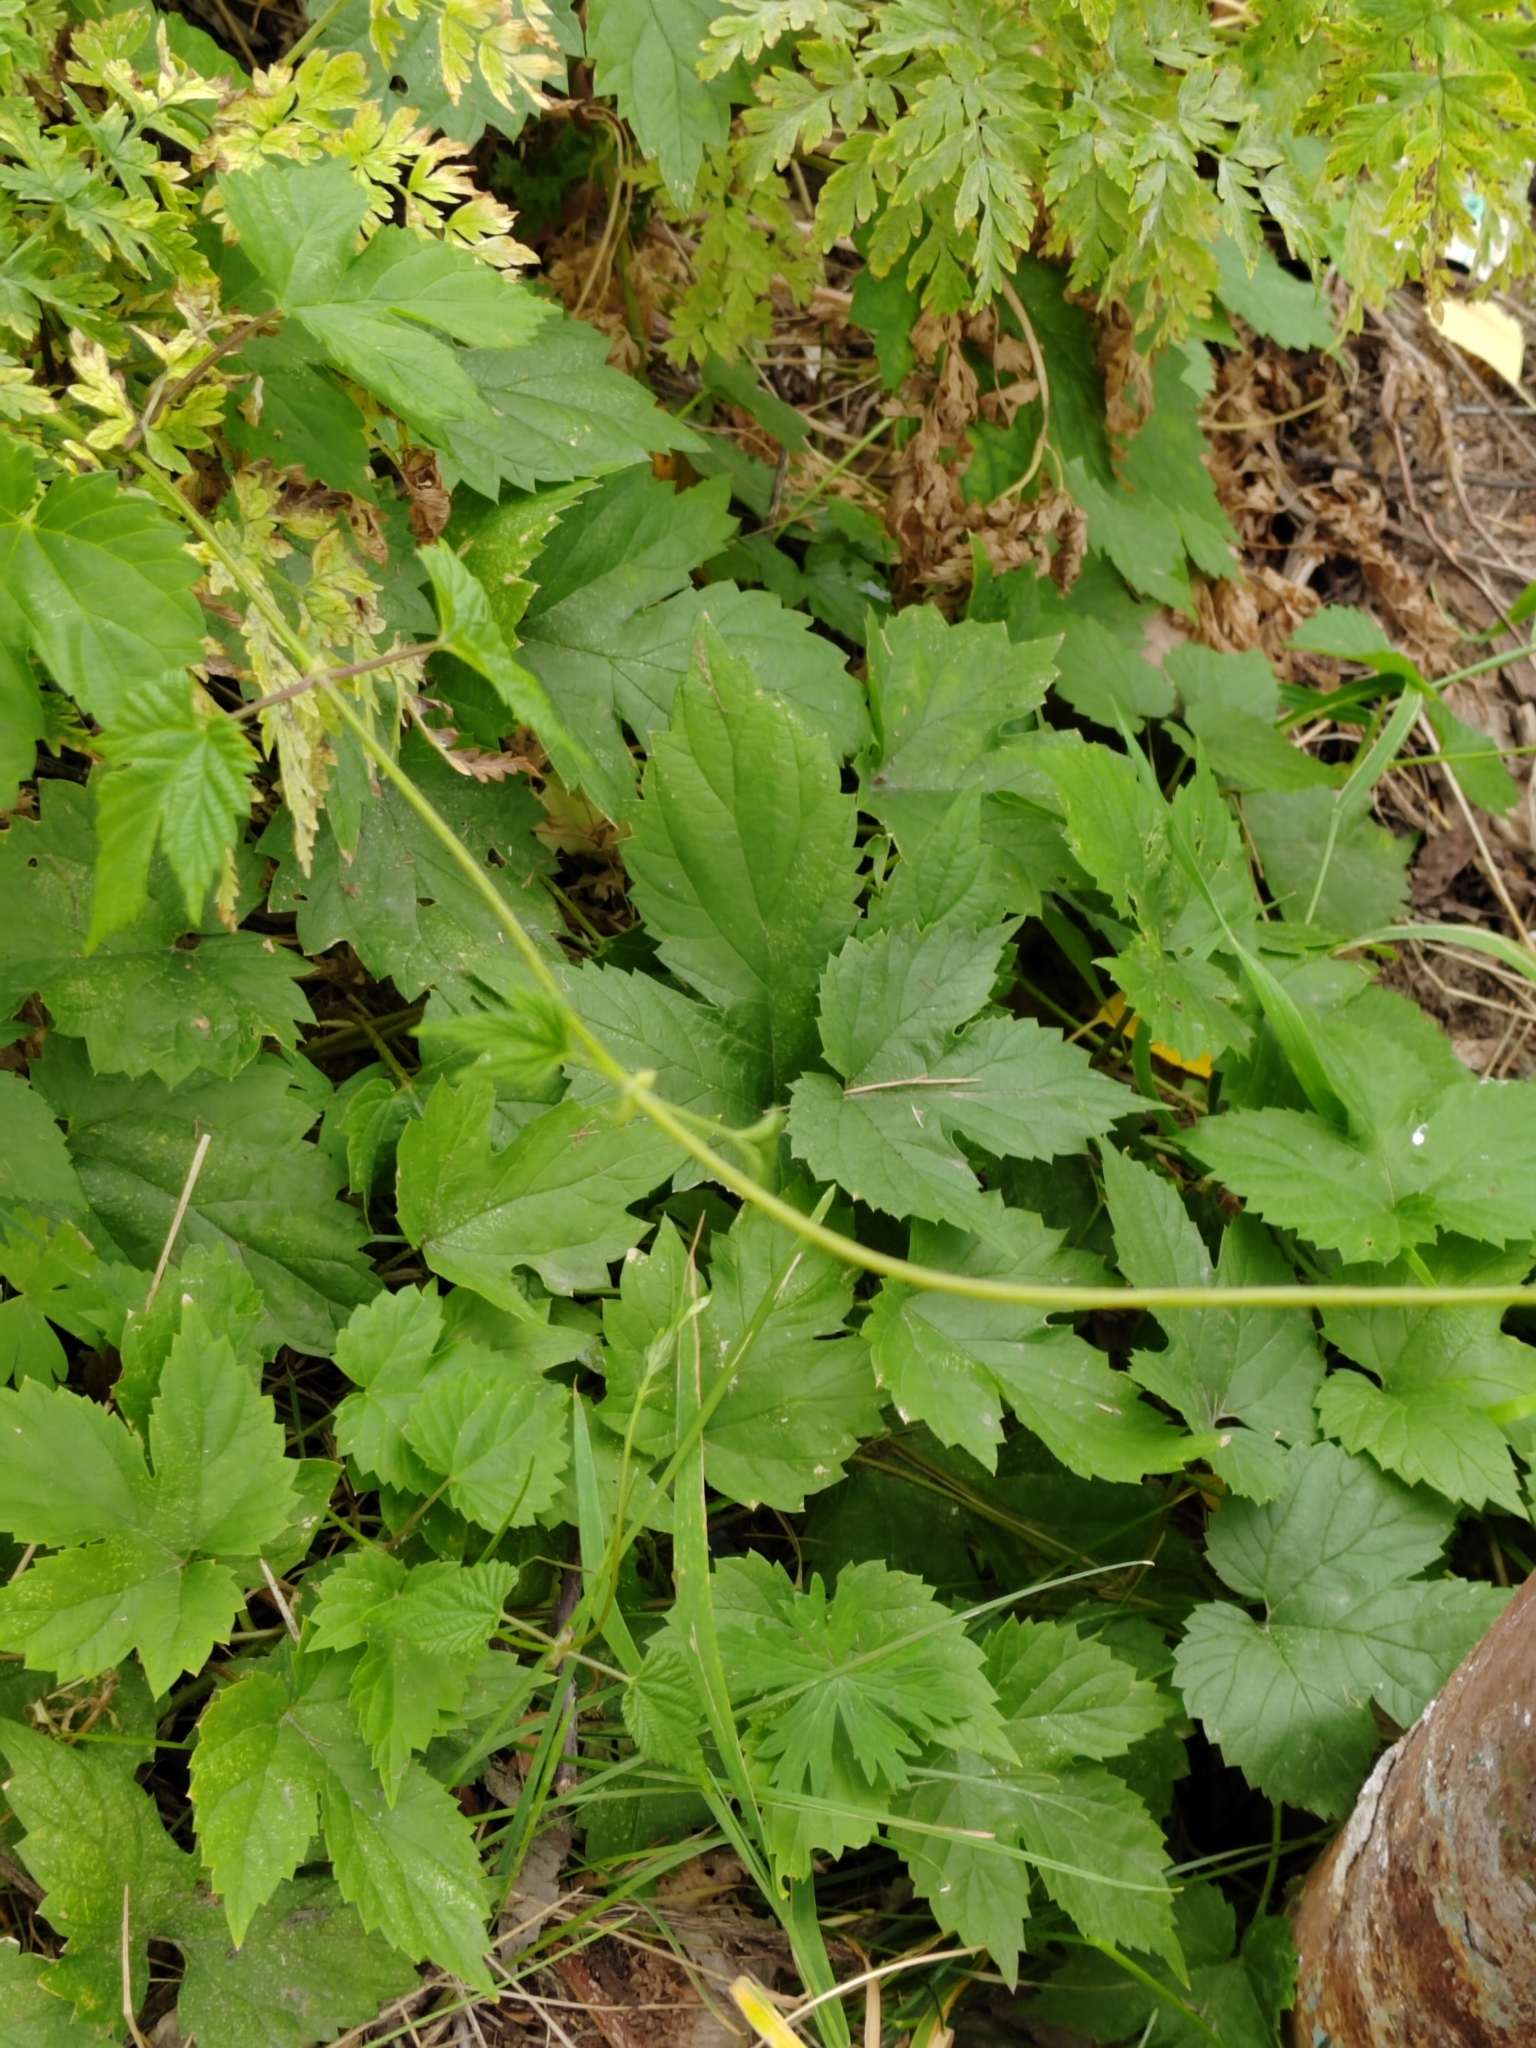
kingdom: Plantae
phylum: Tracheophyta
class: Magnoliopsida
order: Rosales
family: Cannabaceae
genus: Humulus
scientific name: Humulus lupulus
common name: Hop
